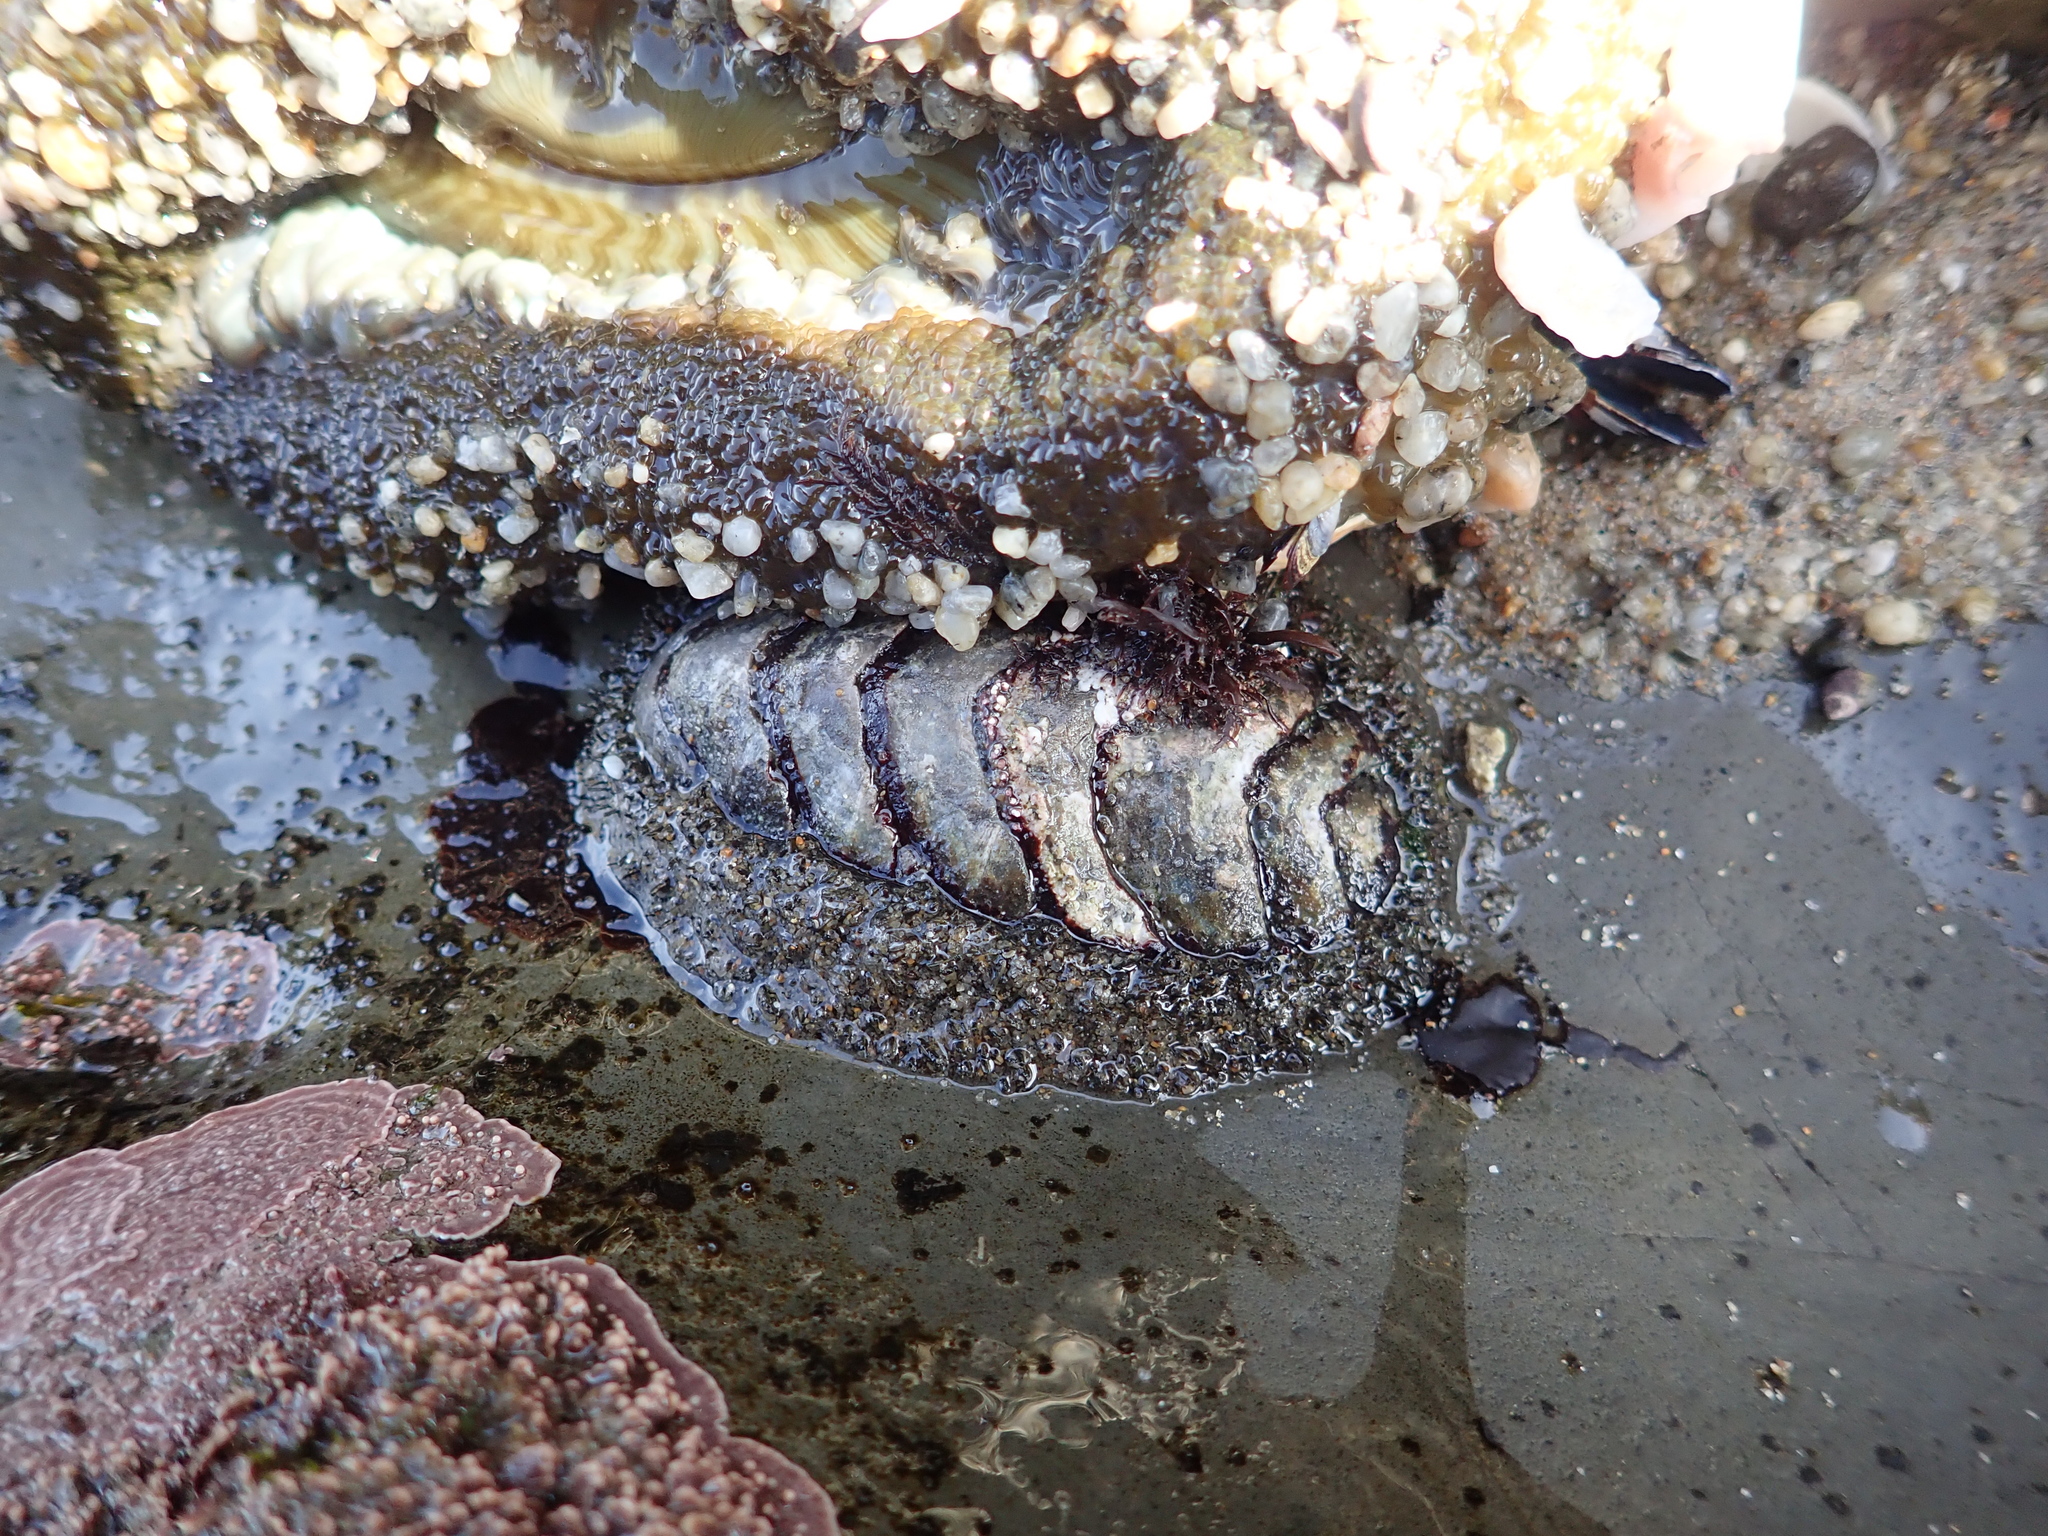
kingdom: Animalia
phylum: Mollusca
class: Polyplacophora
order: Chitonida
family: Mopaliidae
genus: Mopalia
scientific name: Mopalia muscosa
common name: Mossy chiton
